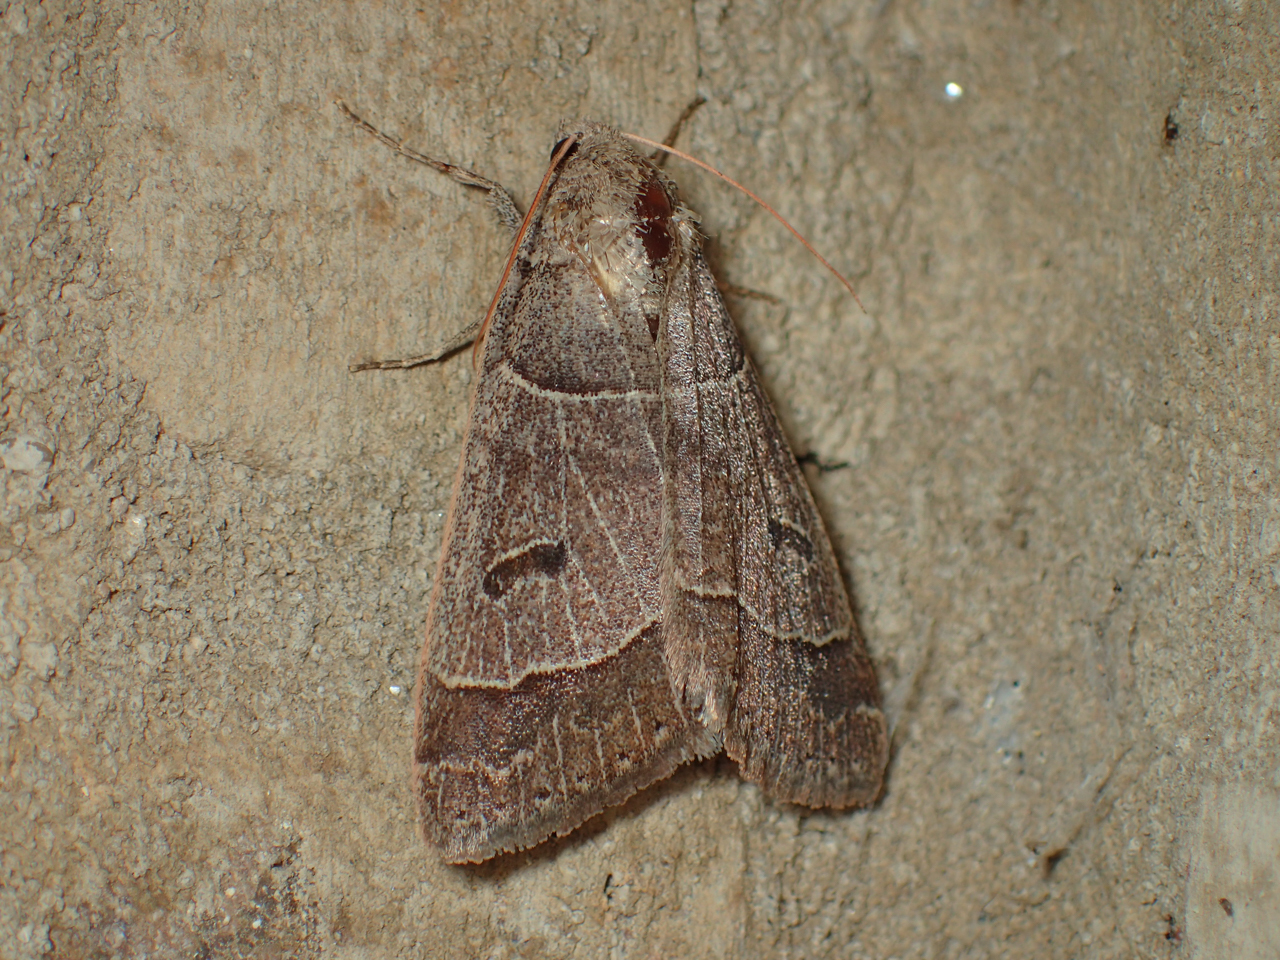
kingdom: Animalia
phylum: Arthropoda
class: Insecta
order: Lepidoptera
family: Erebidae
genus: Phoberia
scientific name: Phoberia atomaris
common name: Common oak moth
